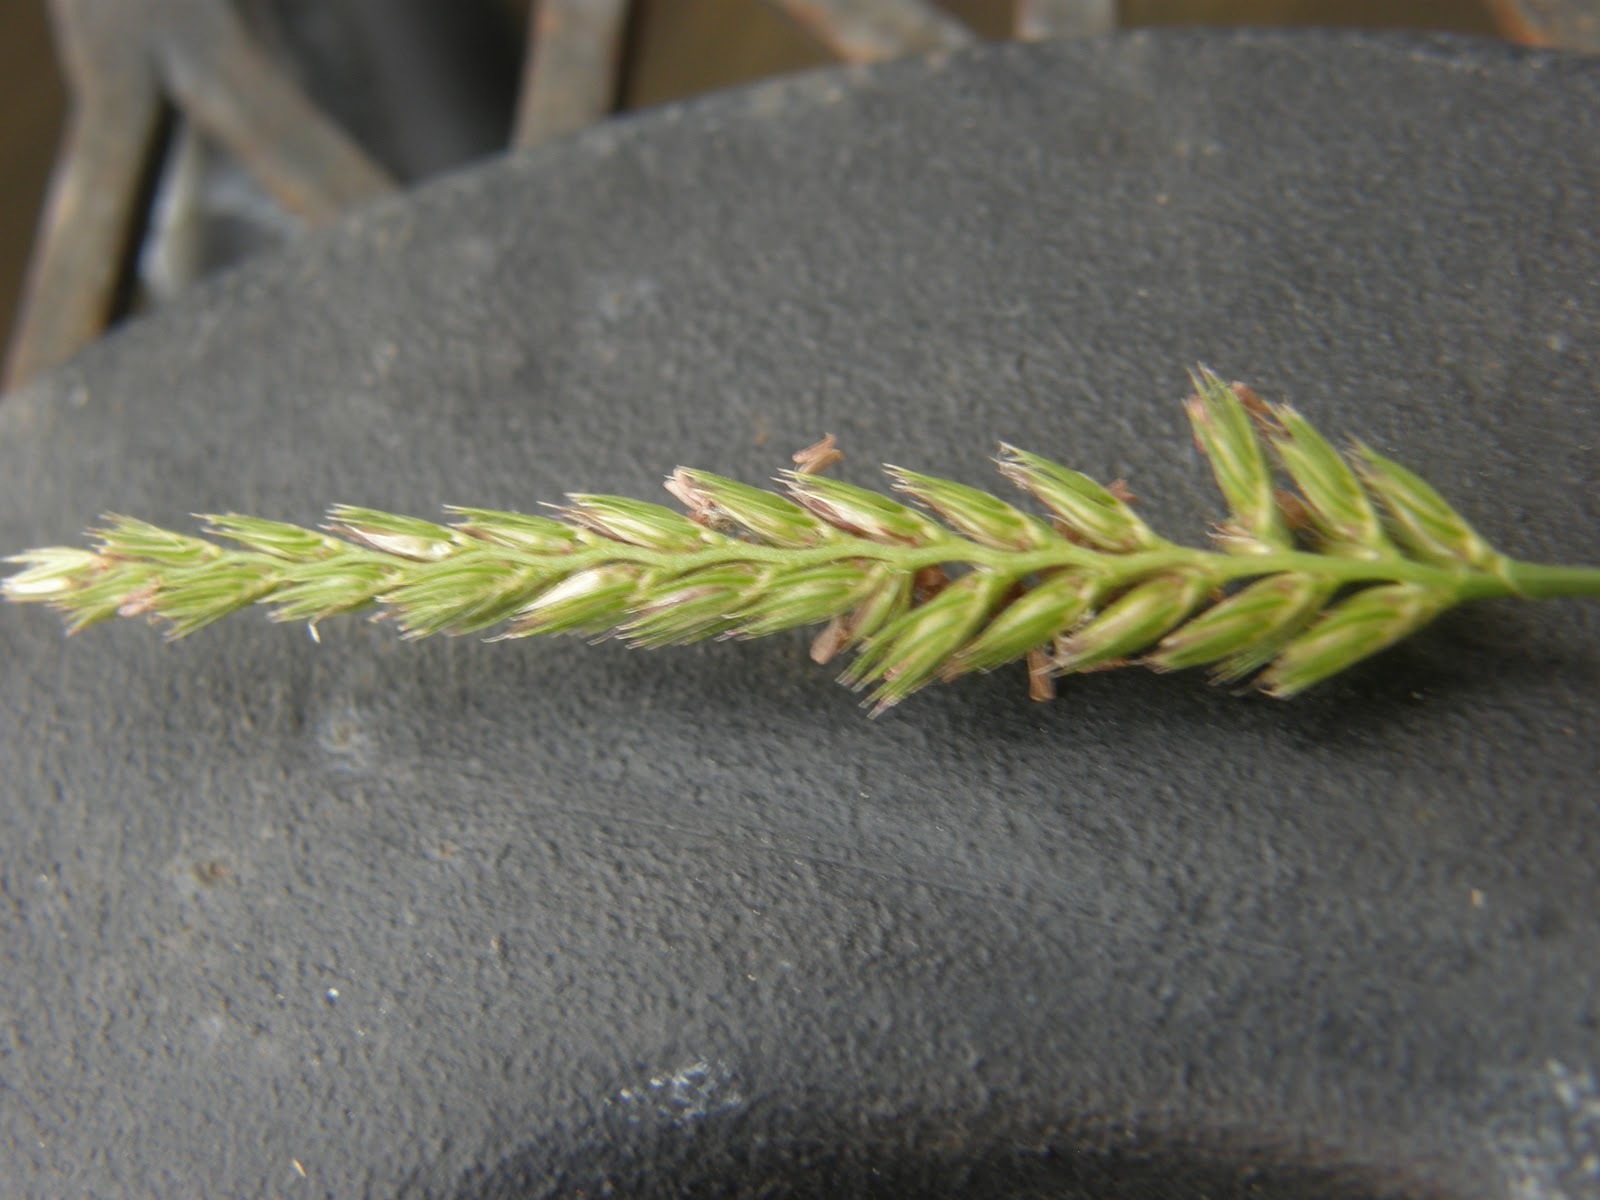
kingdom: Plantae
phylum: Tracheophyta
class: Liliopsida
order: Poales
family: Poaceae
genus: Cynosurus
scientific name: Cynosurus cristatus
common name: Crested dog's-tail
